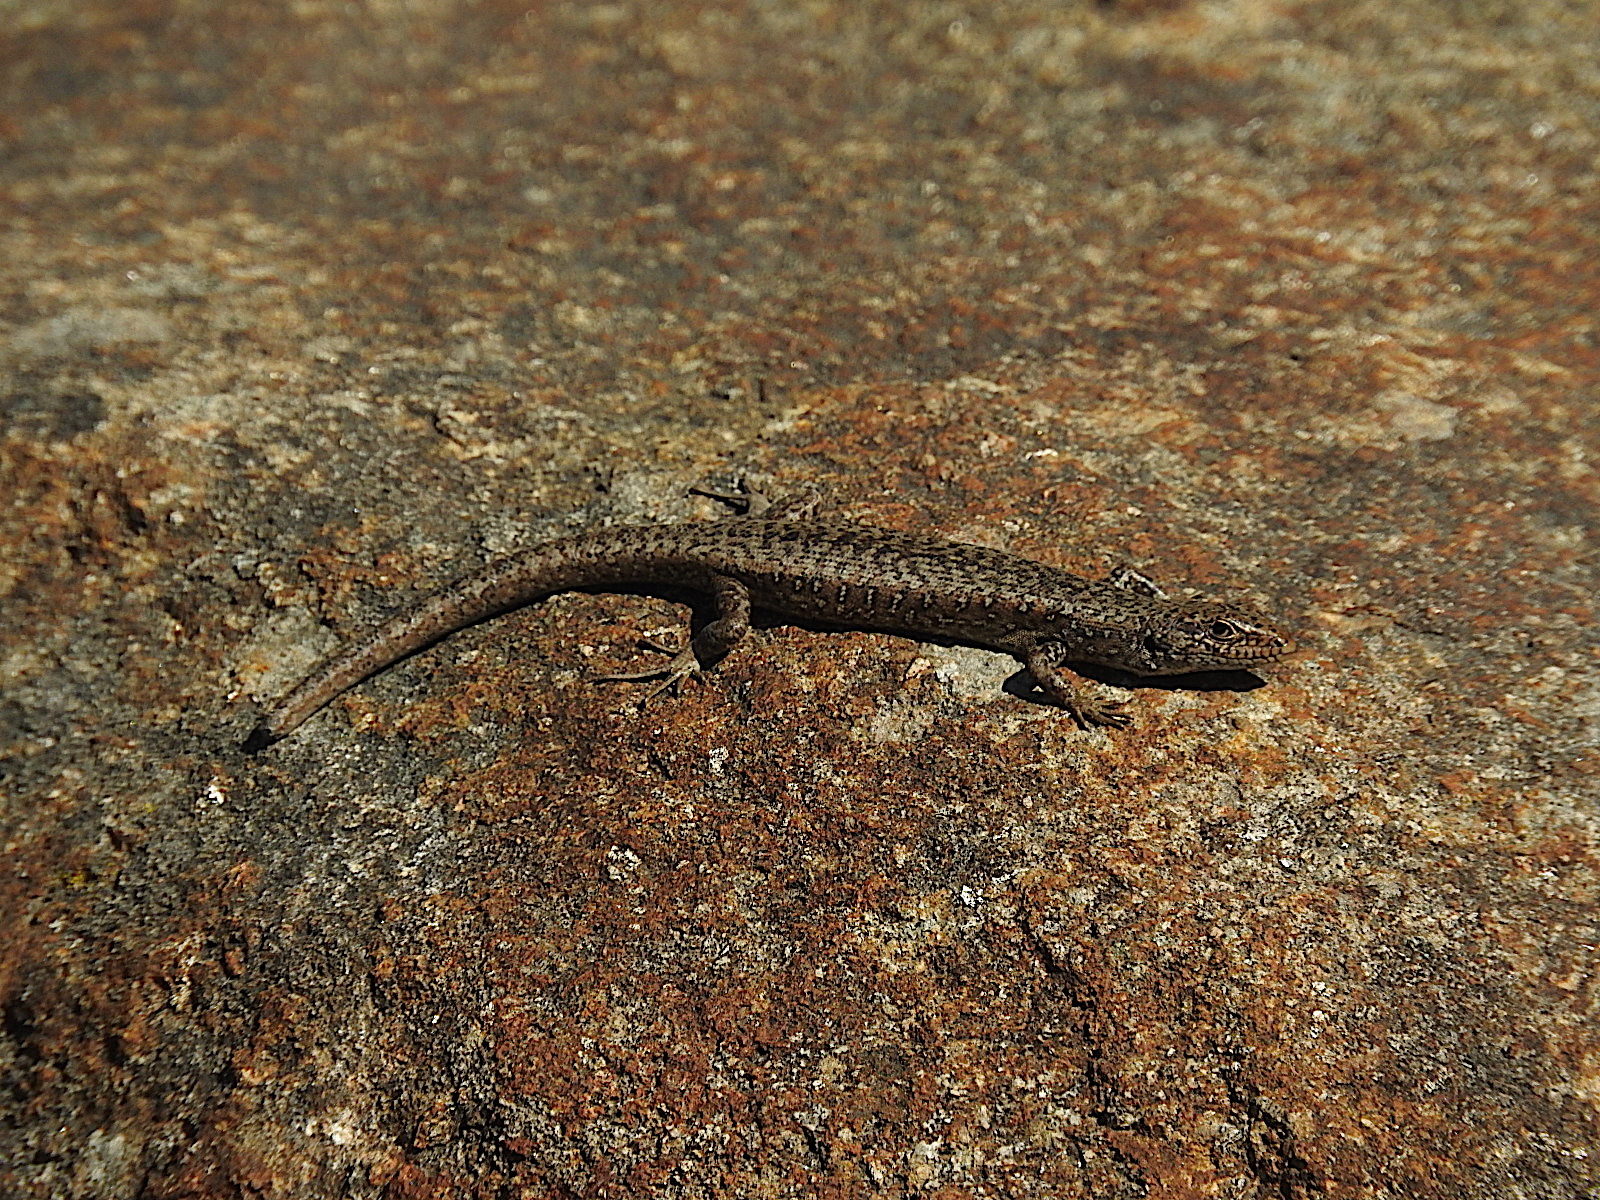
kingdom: Animalia
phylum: Chordata
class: Squamata
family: Scincidae
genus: Carinascincus
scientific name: Carinascincus ocellatus
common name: Ocellated cool-skink
